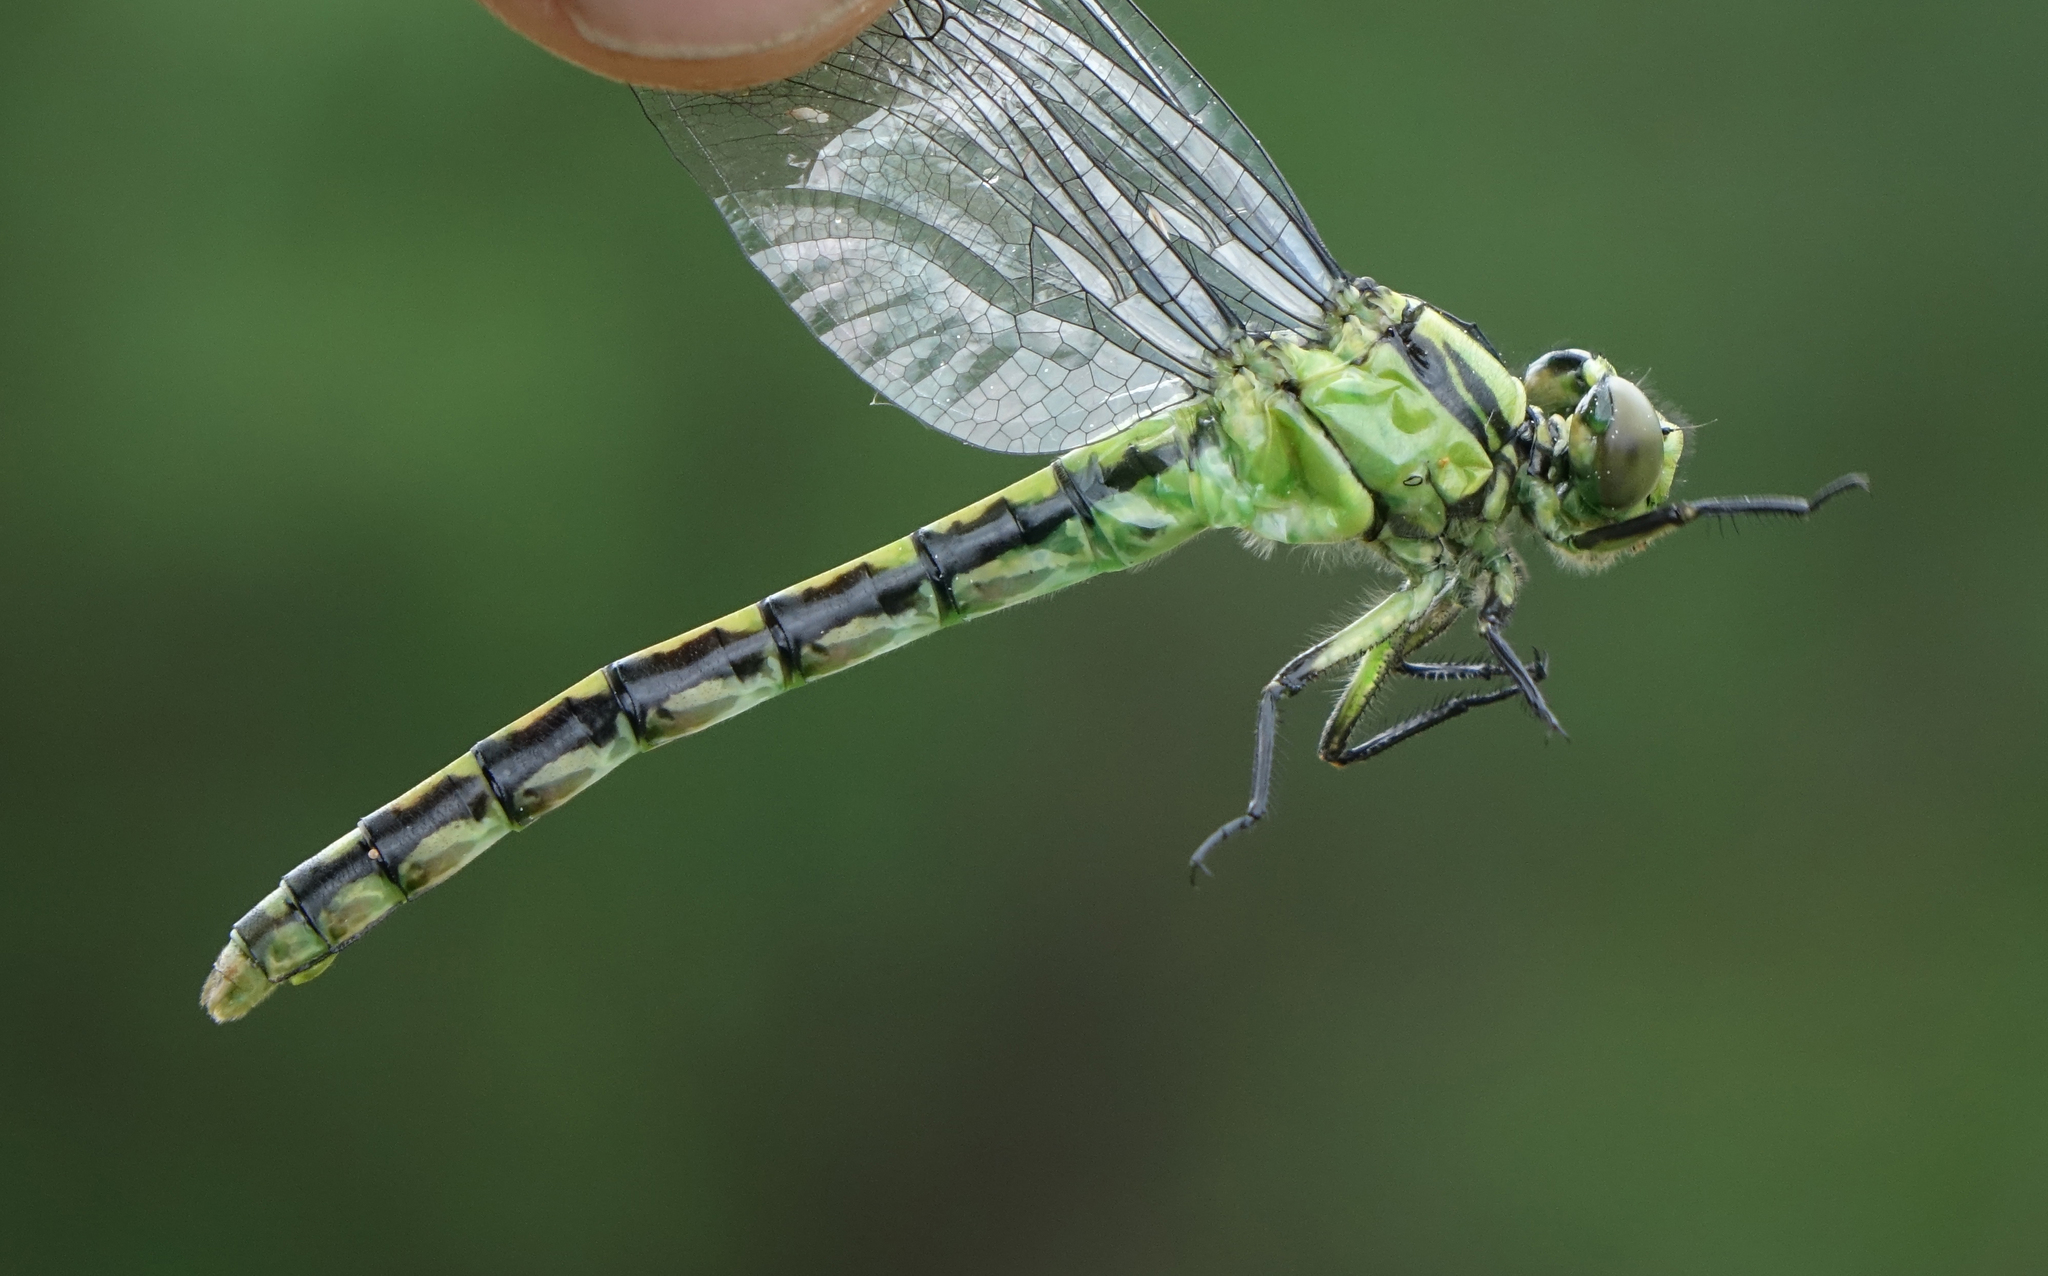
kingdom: Animalia
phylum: Arthropoda
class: Insecta
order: Odonata
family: Gomphidae
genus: Ophiogomphus
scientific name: Ophiogomphus obscurus
